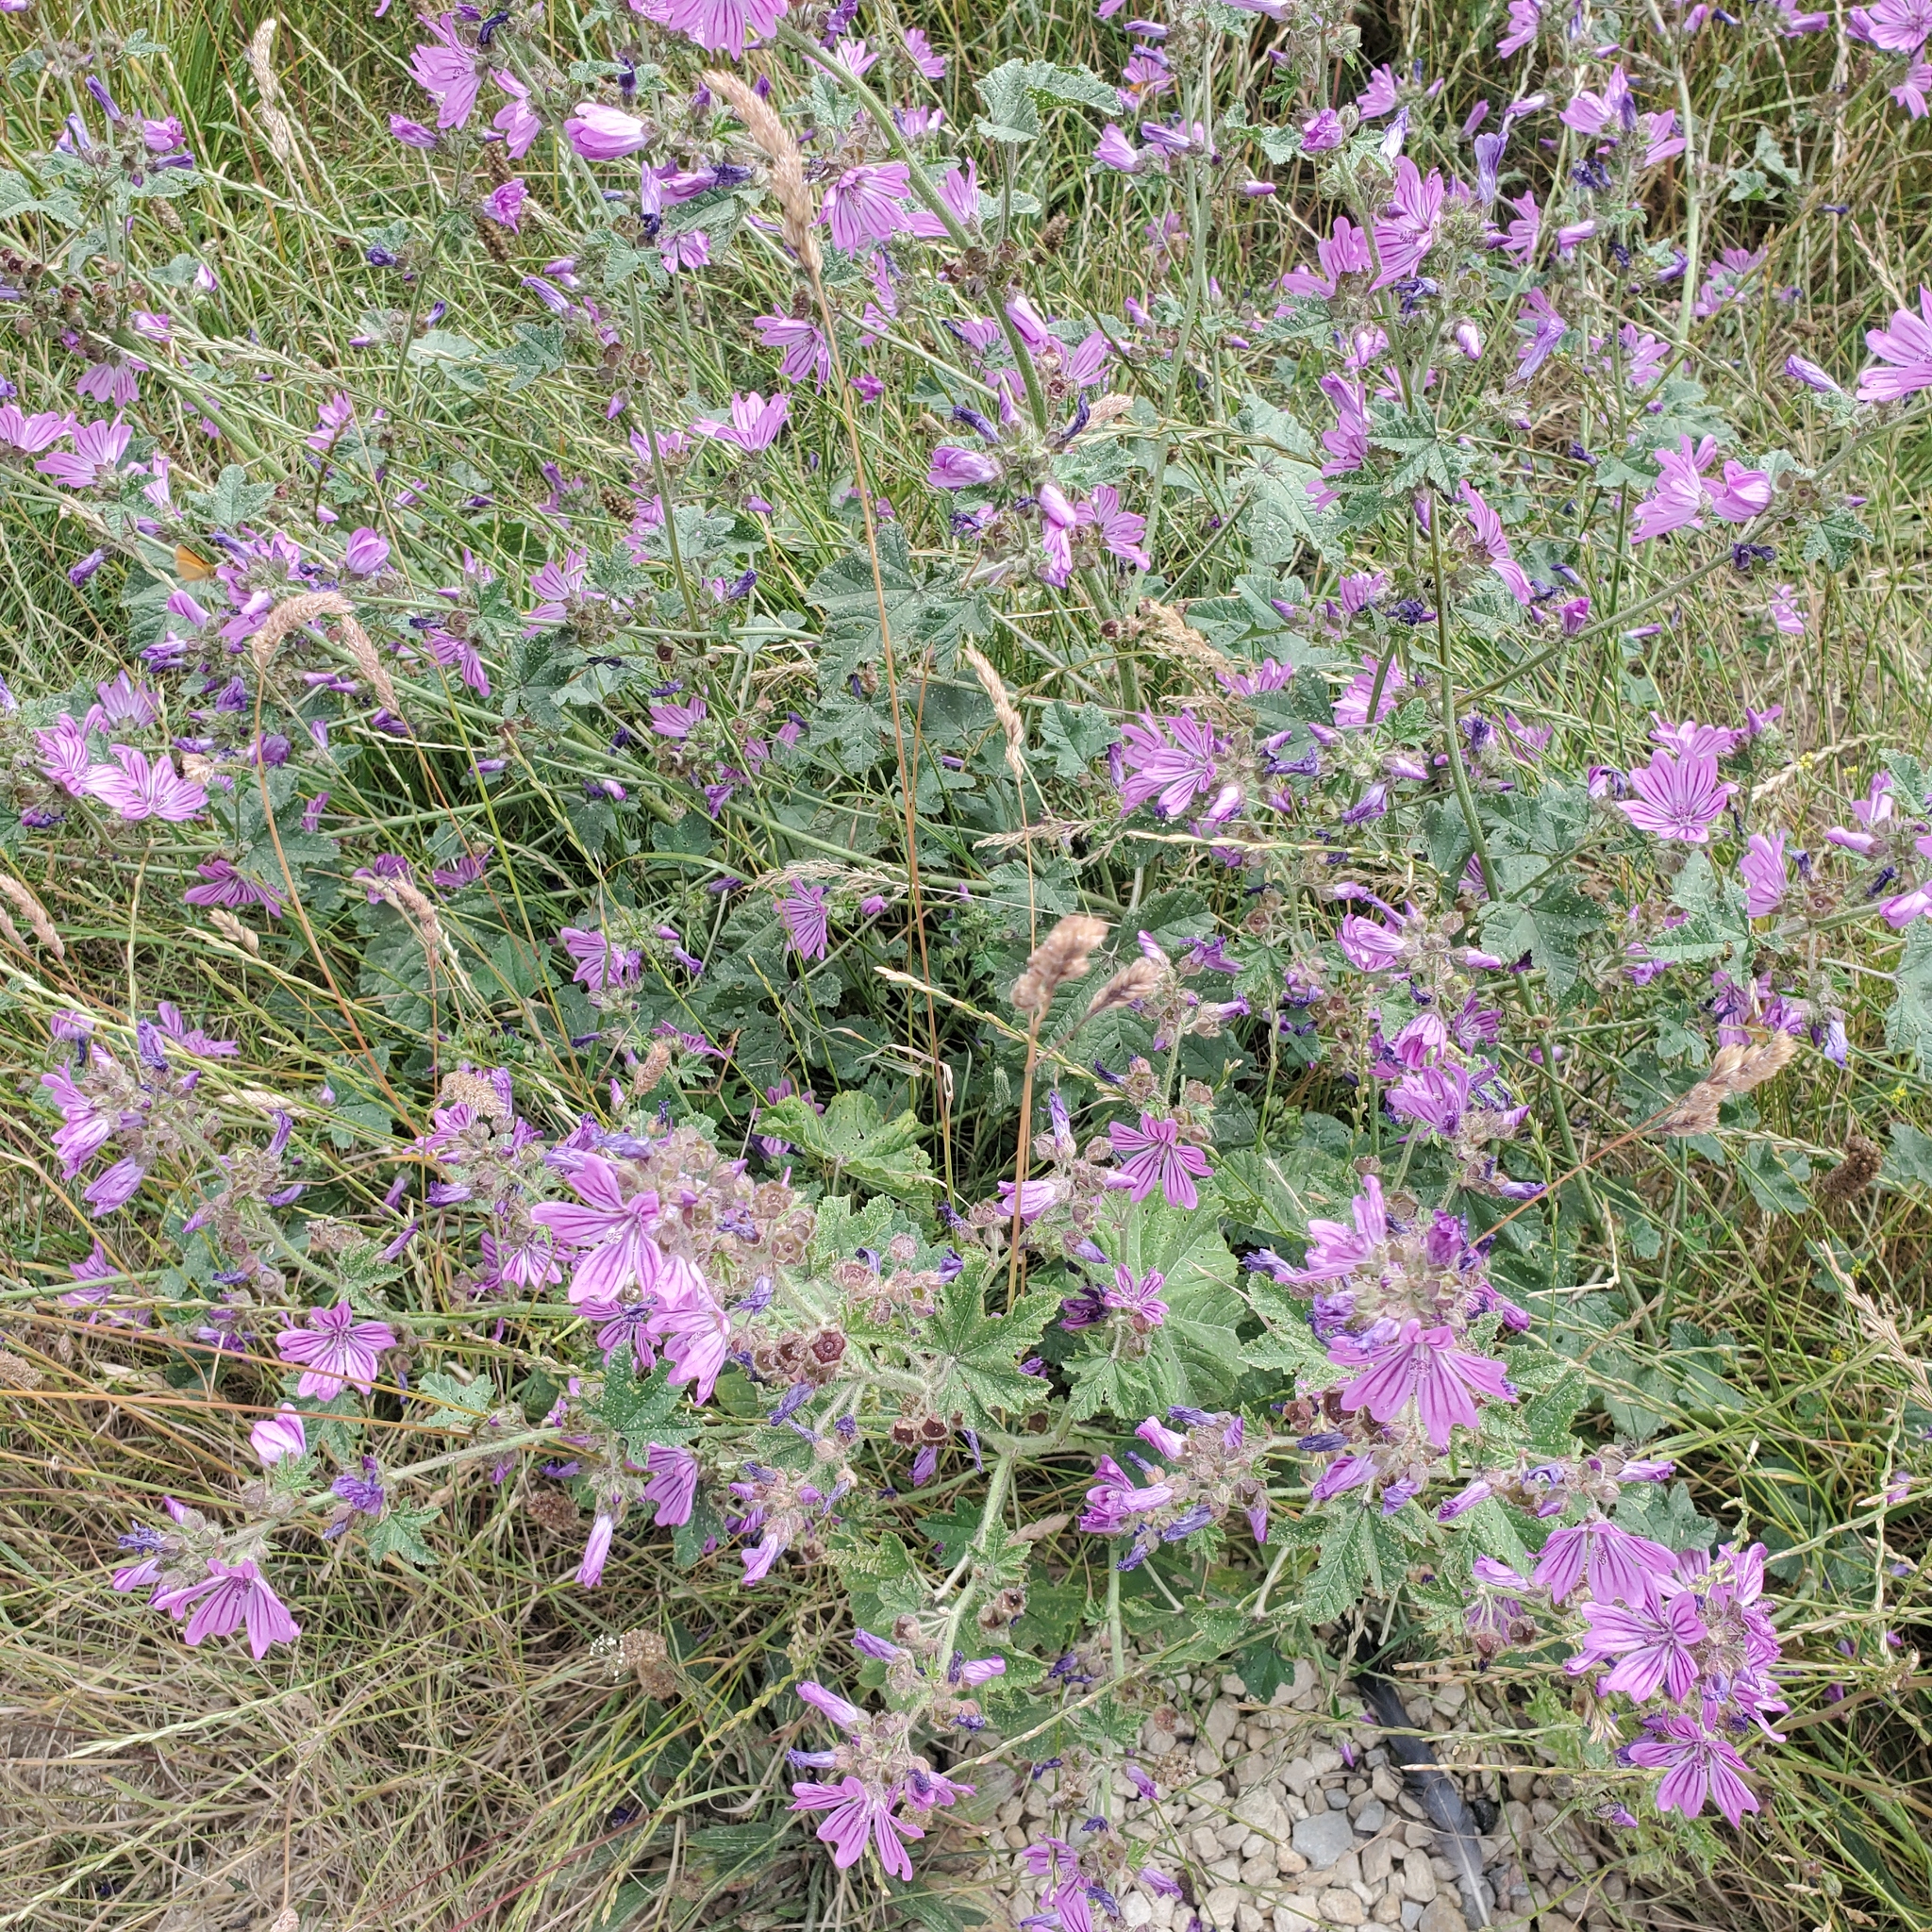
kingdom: Plantae
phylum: Tracheophyta
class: Magnoliopsida
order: Malvales
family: Malvaceae
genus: Malva
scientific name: Malva sylvestris
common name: Common mallow
